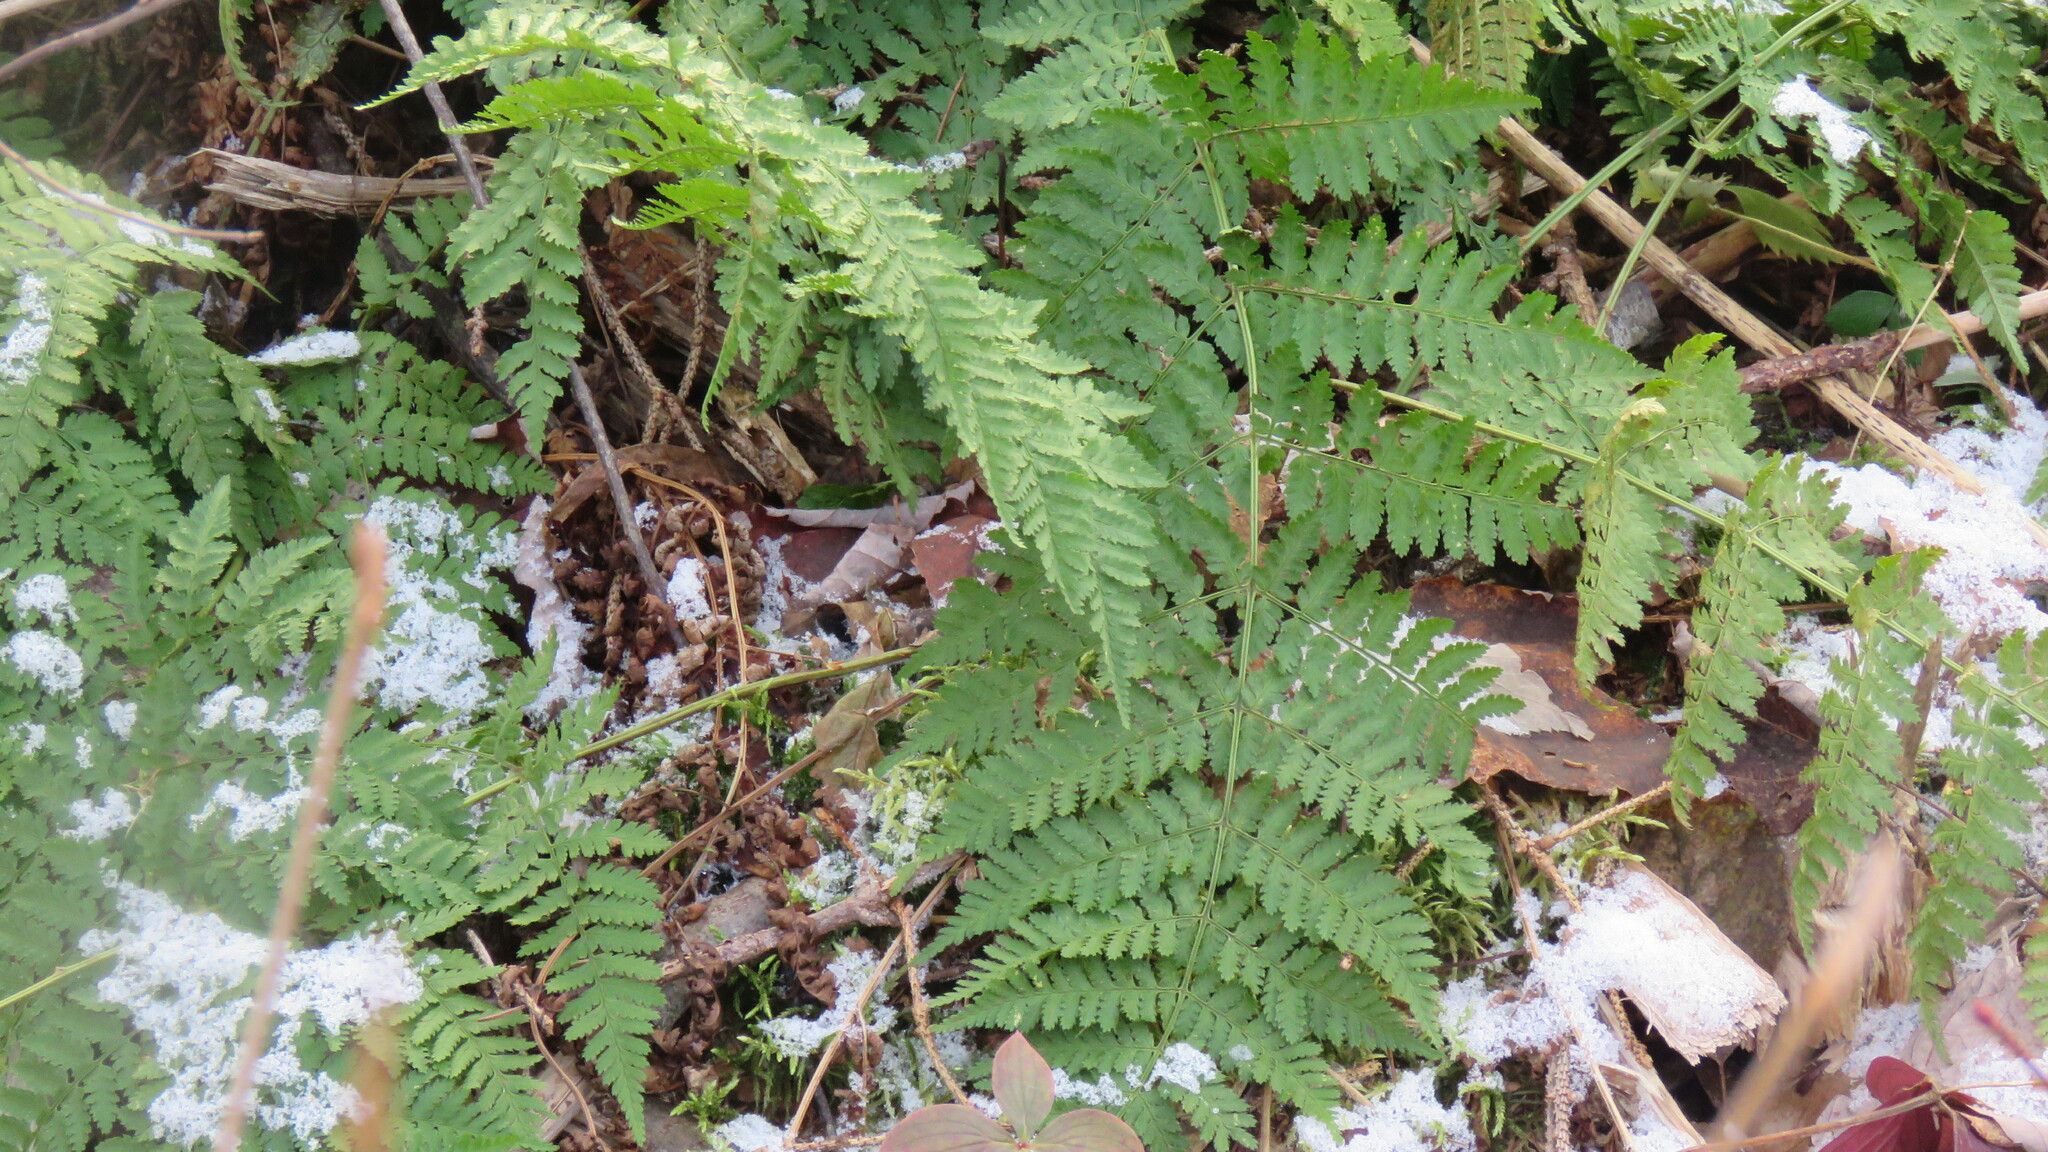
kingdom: Plantae
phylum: Tracheophyta
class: Polypodiopsida
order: Polypodiales
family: Dryopteridaceae
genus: Dryopteris
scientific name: Dryopteris intermedia
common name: Evergreen wood fern
